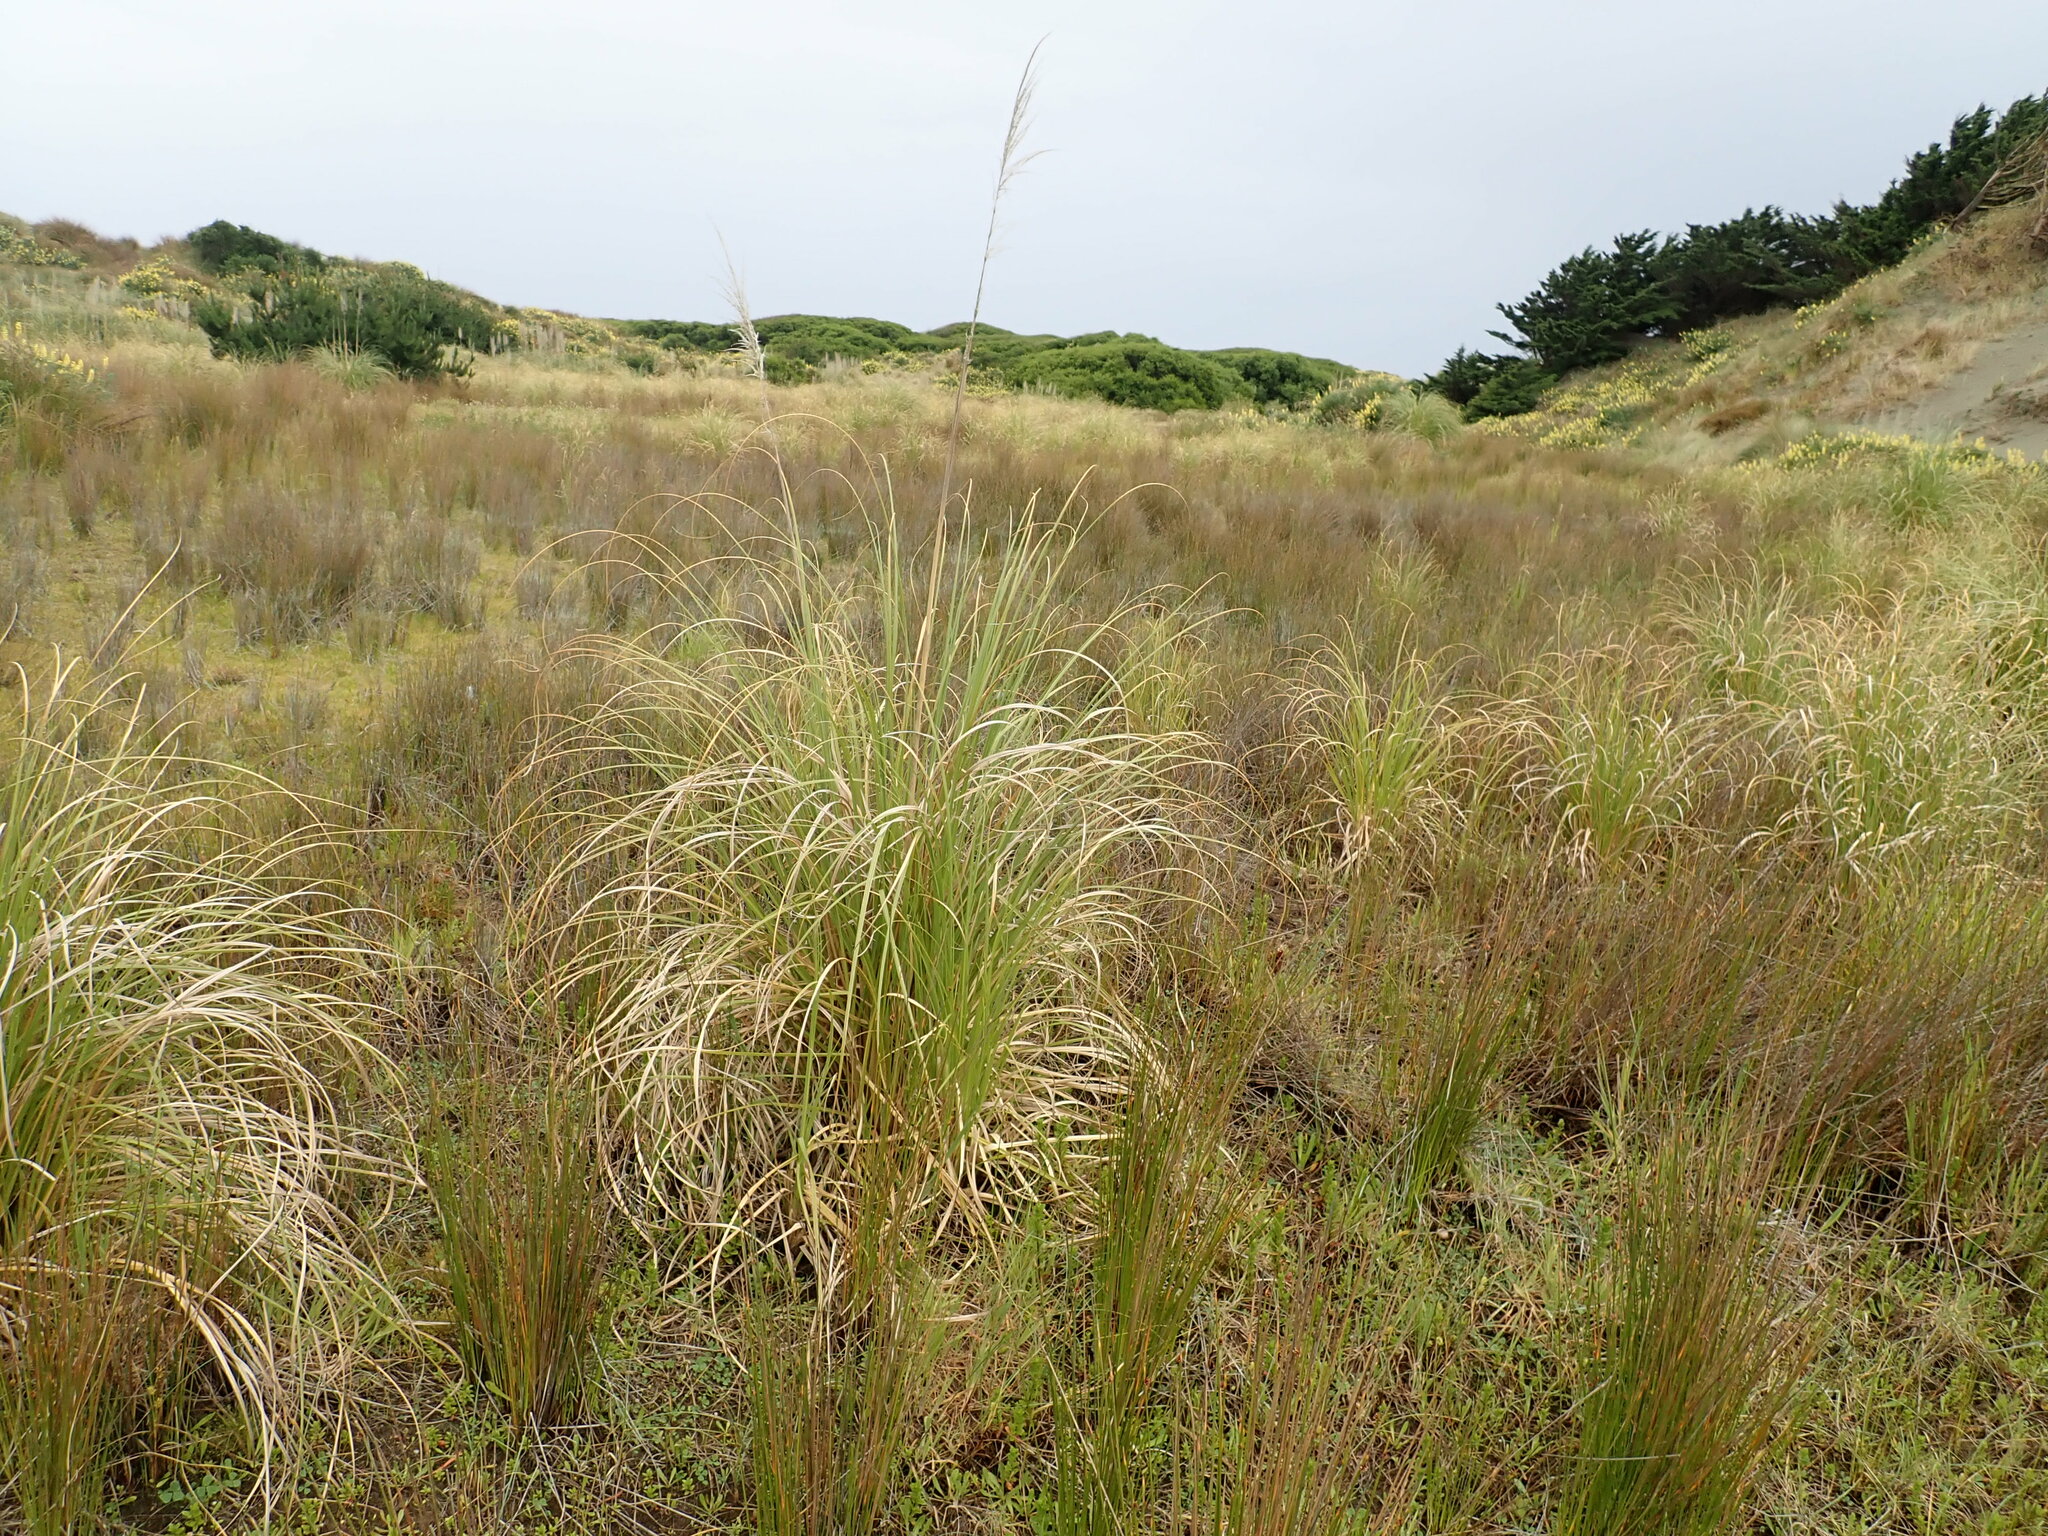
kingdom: Plantae
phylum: Tracheophyta
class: Liliopsida
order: Poales
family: Poaceae
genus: Cortaderia
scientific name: Cortaderia selloana
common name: Uruguayan pampas grass
